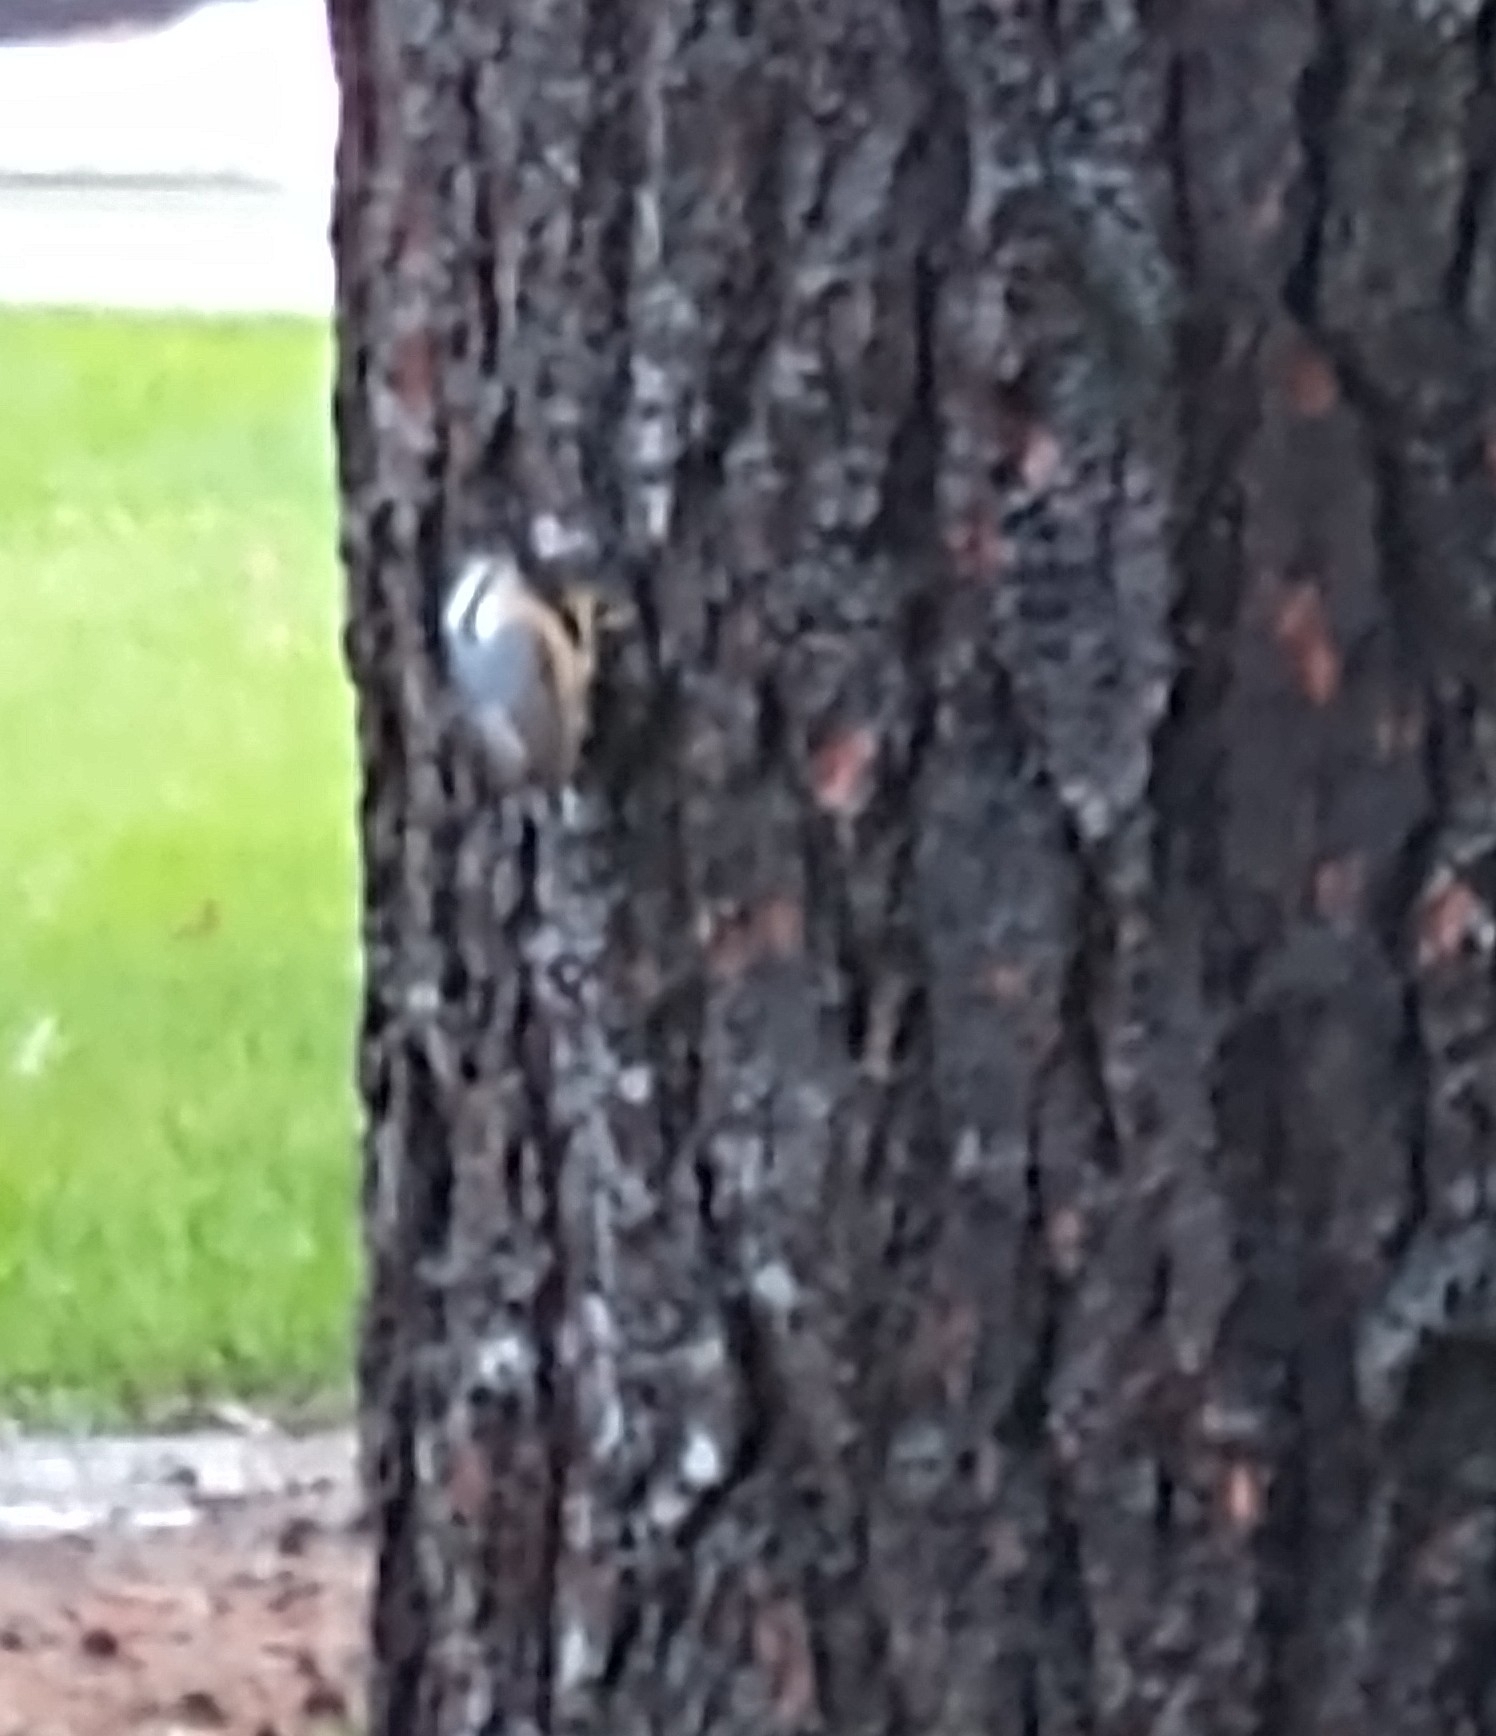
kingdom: Animalia
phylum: Chordata
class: Aves
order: Passeriformes
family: Sittidae
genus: Sitta
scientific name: Sitta canadensis
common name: Red-breasted nuthatch
